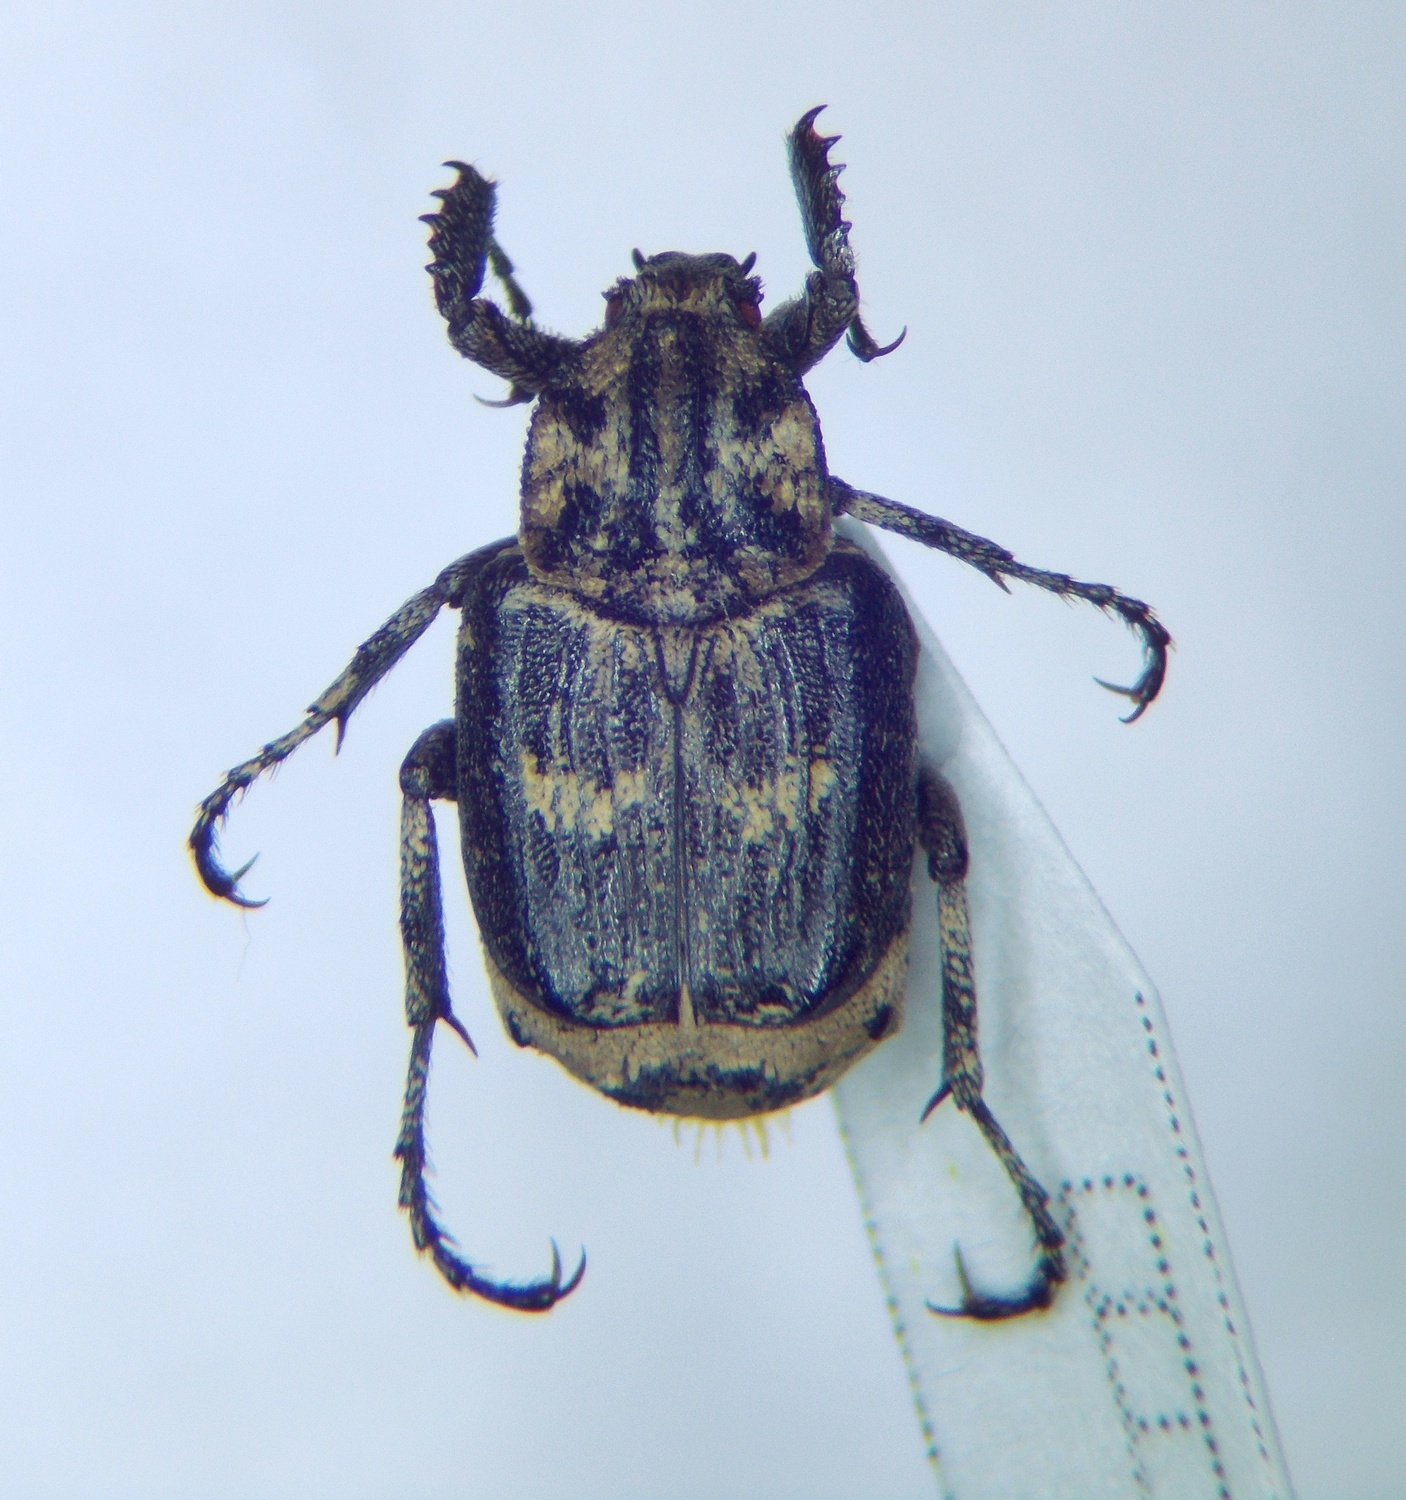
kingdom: Animalia
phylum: Arthropoda
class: Insecta
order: Coleoptera
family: Scarabaeidae
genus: Valgus
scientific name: Valgus hemipterus
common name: Bug flower chafer
